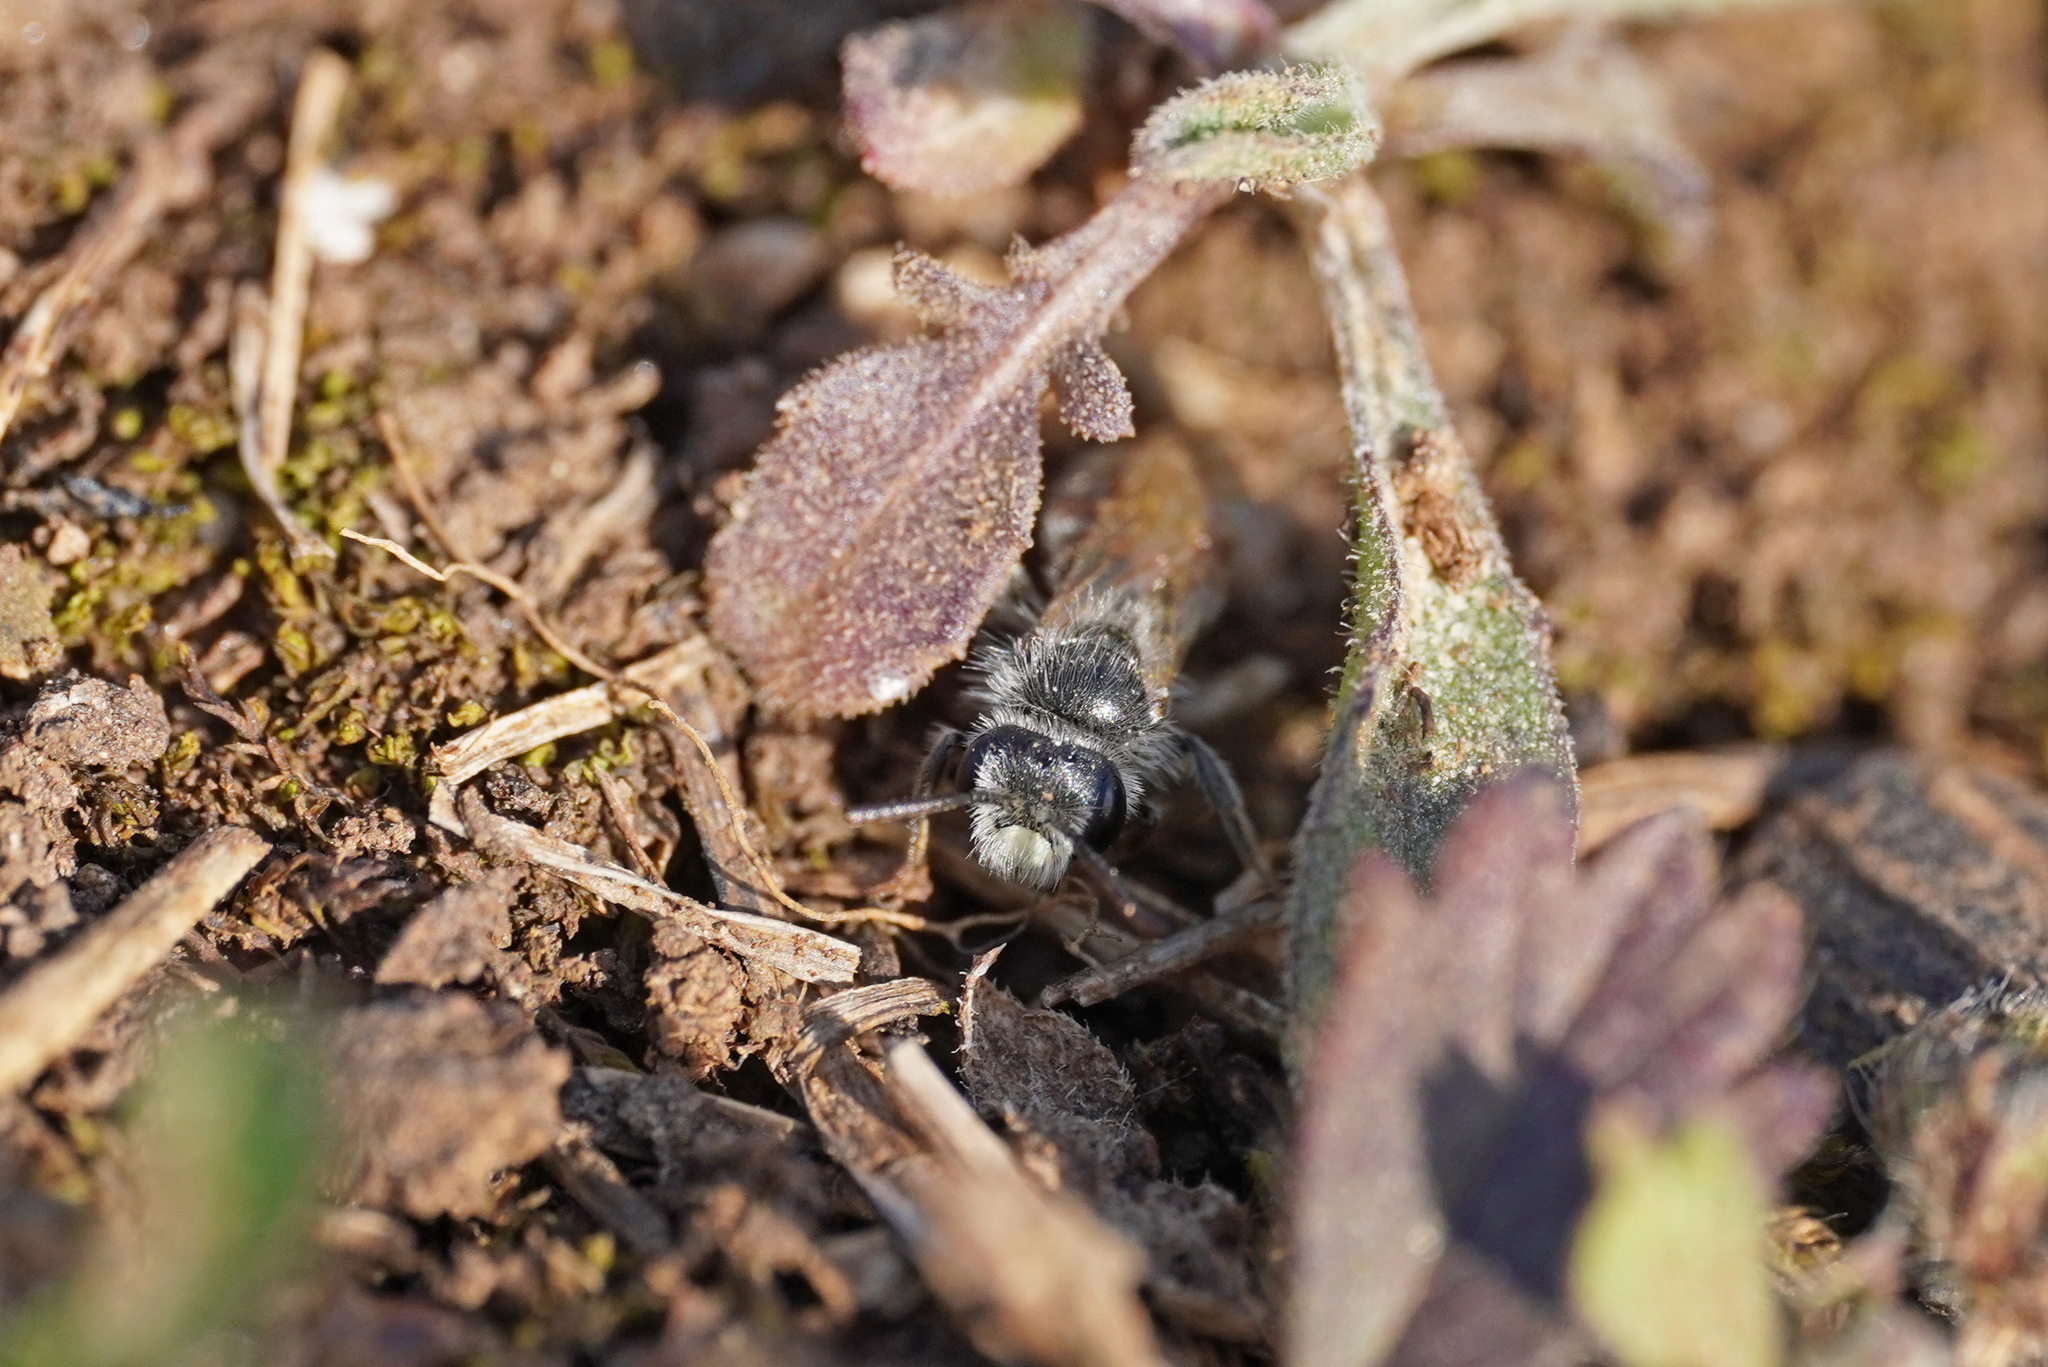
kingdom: Animalia
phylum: Arthropoda
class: Insecta
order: Hymenoptera
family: Andrenidae
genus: Andrena
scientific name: Andrena potentillae
